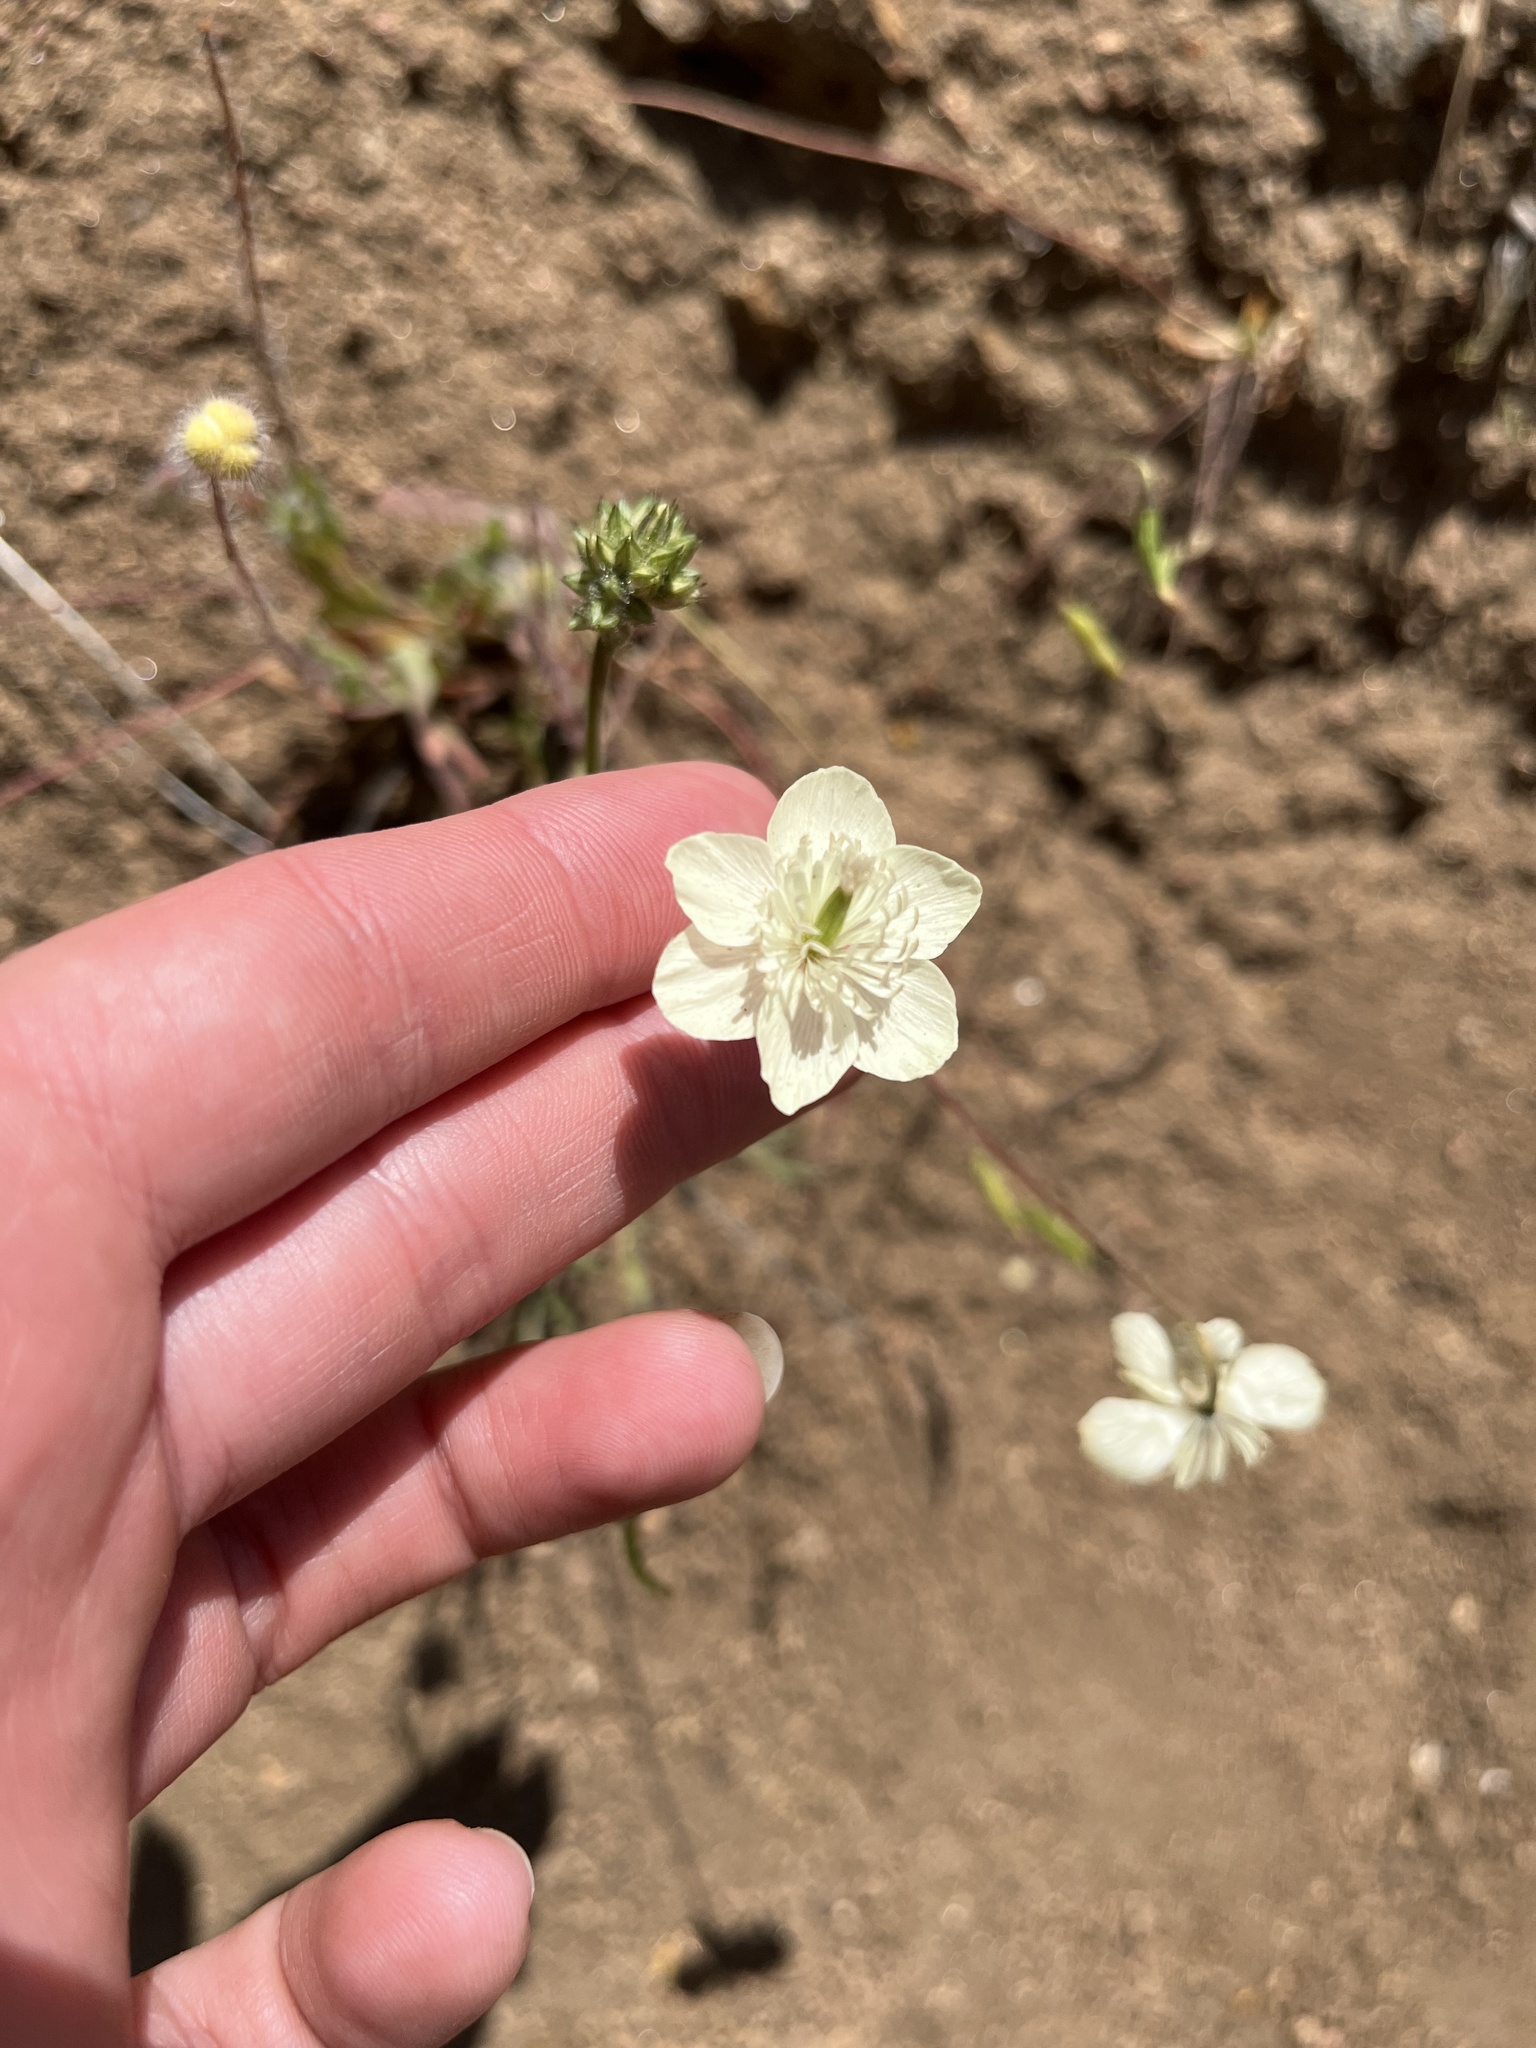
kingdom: Plantae
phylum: Tracheophyta
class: Magnoliopsida
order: Ranunculales
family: Papaveraceae
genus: Platystemon
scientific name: Platystemon californicus
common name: Cream-cups
